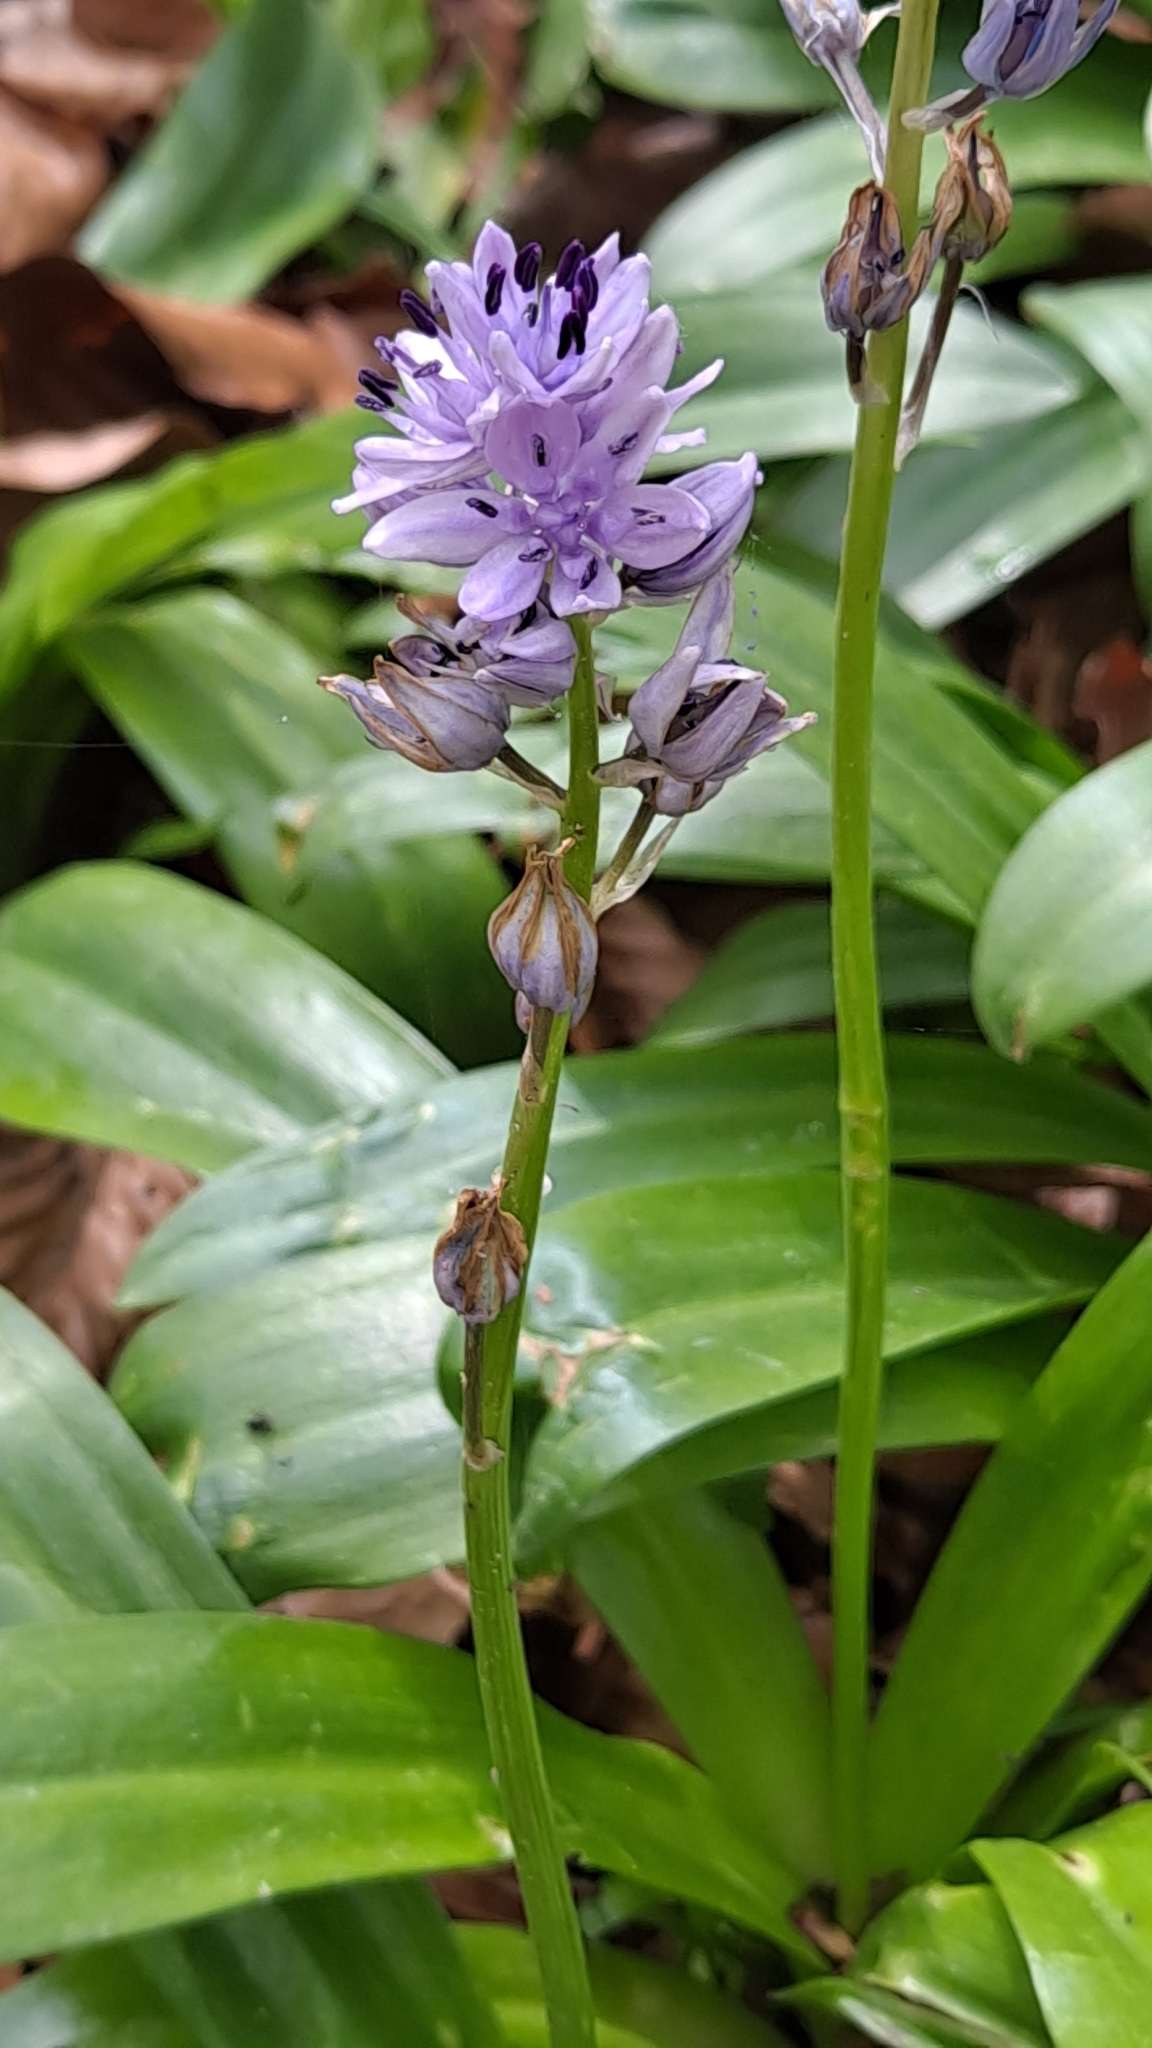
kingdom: Plantae
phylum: Tracheophyta
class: Liliopsida
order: Asparagales
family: Asparagaceae
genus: Scilla
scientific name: Scilla lilio-hyacinthus
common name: Pyrenean squill
